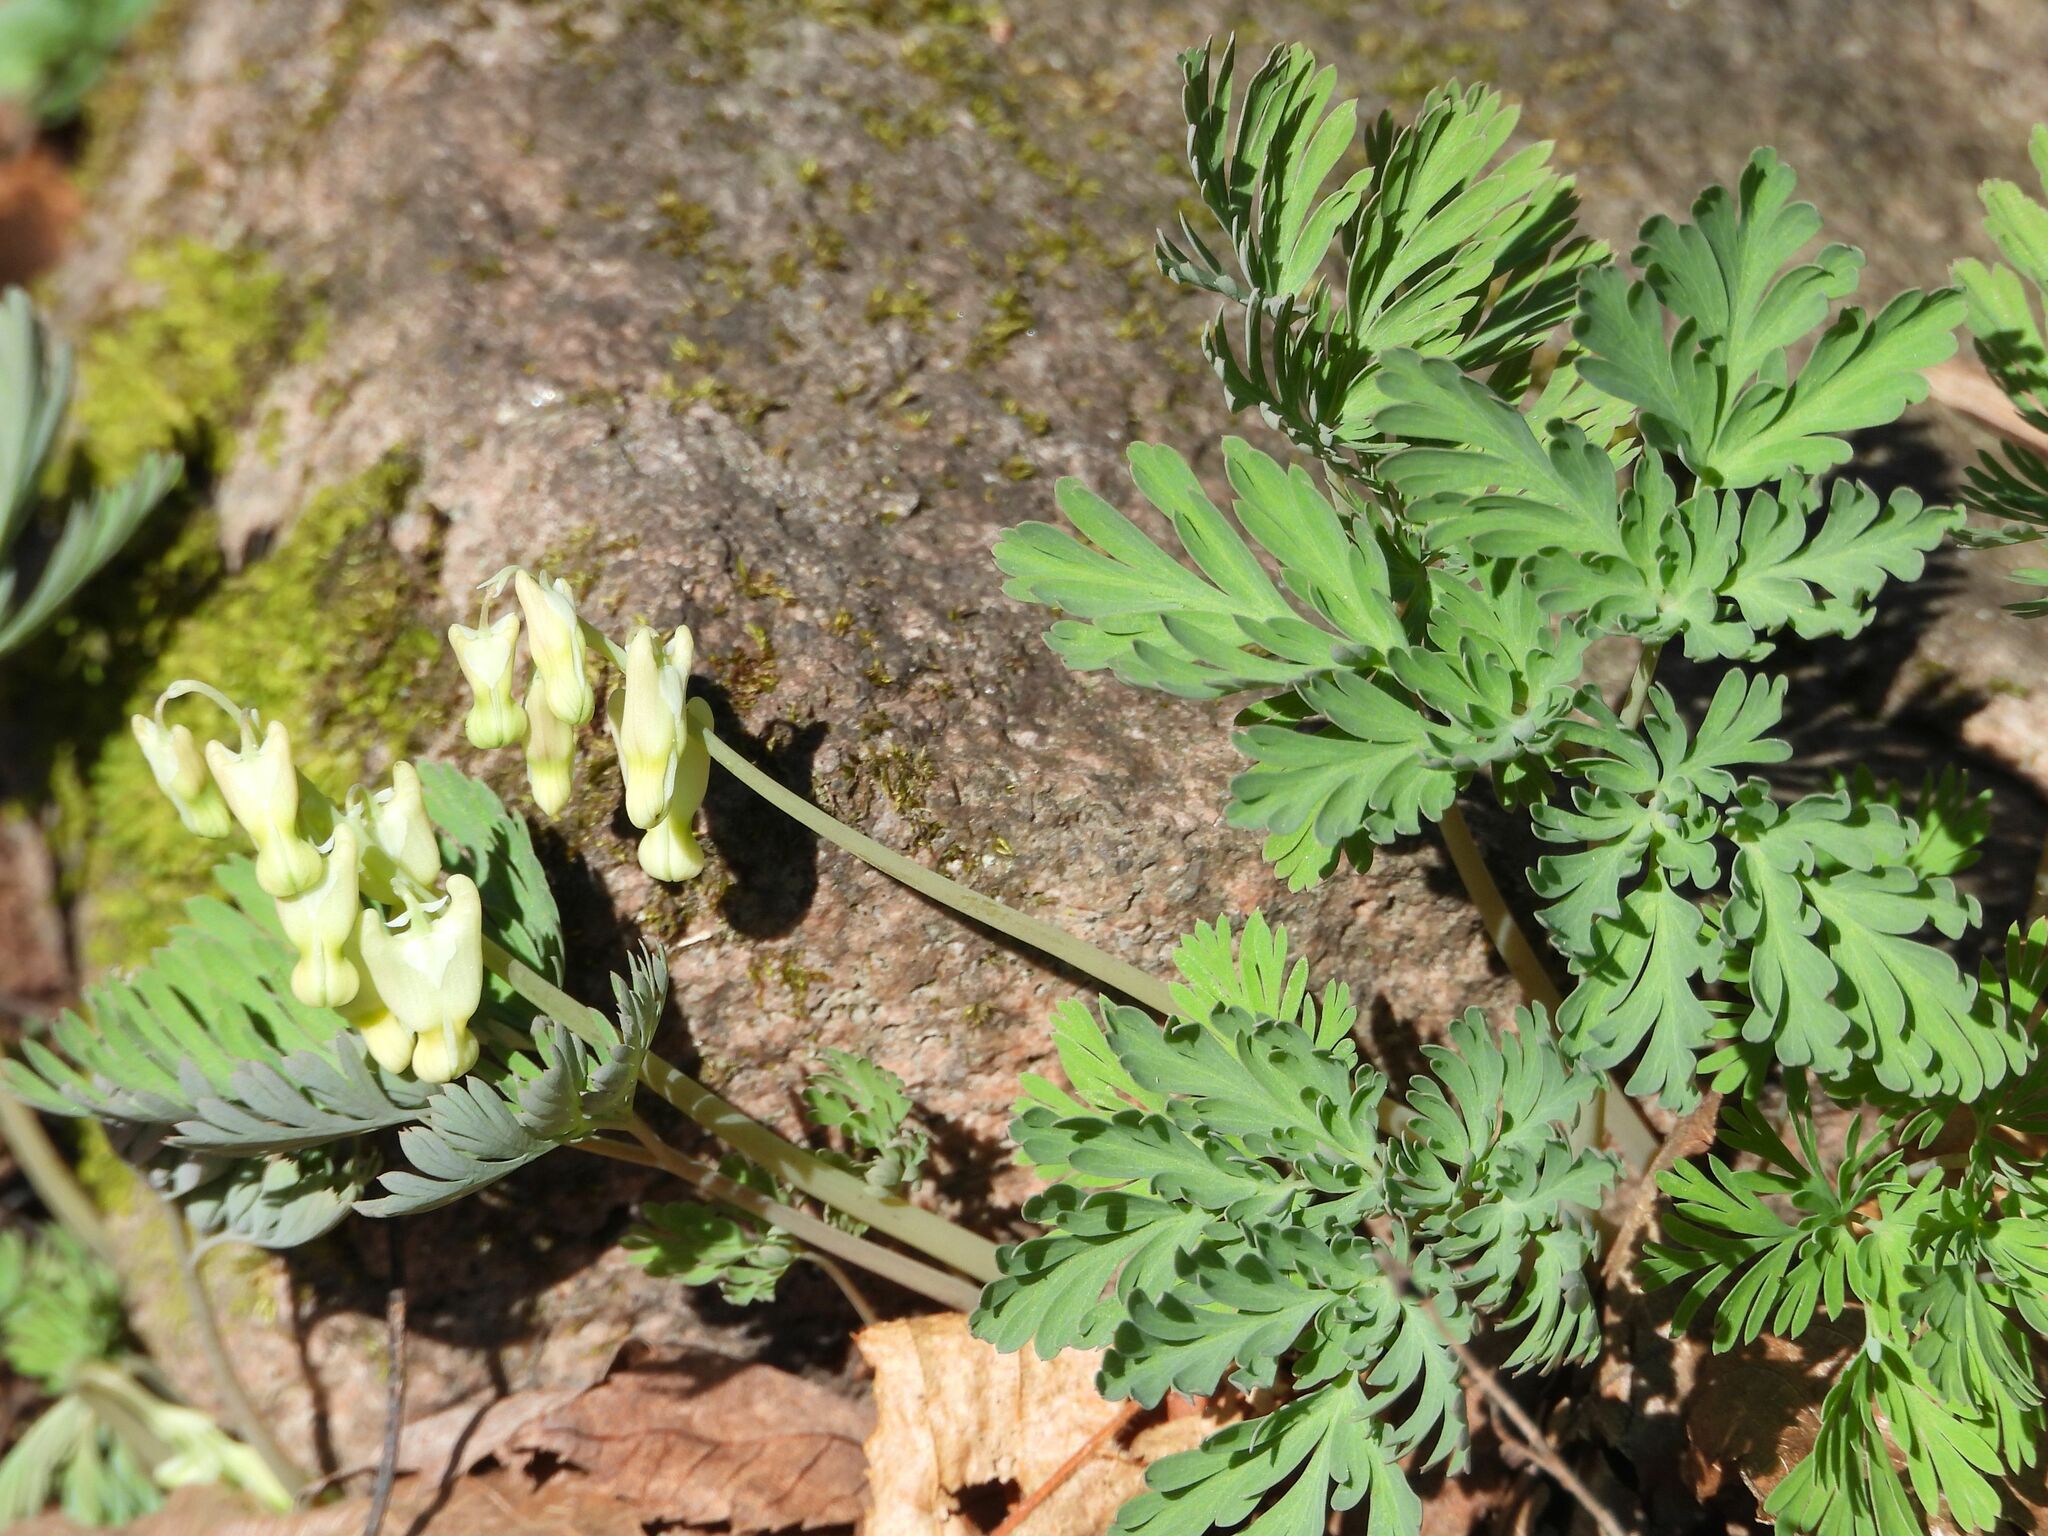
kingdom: Plantae
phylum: Tracheophyta
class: Magnoliopsida
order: Ranunculales
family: Papaveraceae
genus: Dicentra
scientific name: Dicentra cucullaria
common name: Dutchman's breeches
